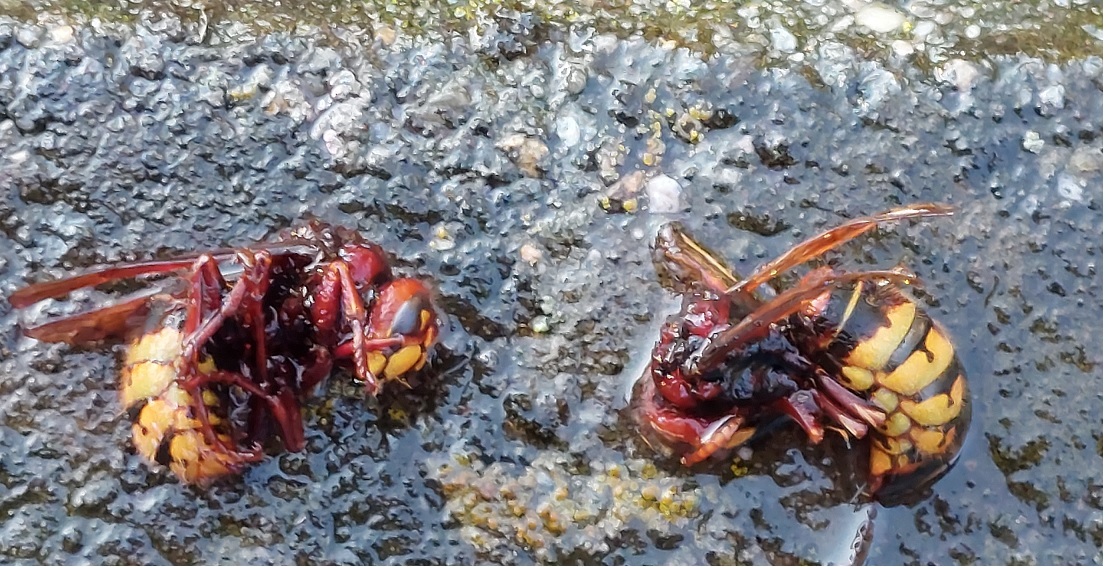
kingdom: Animalia
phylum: Arthropoda
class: Insecta
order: Hymenoptera
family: Vespidae
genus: Vespa
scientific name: Vespa crabro
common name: Hornet
